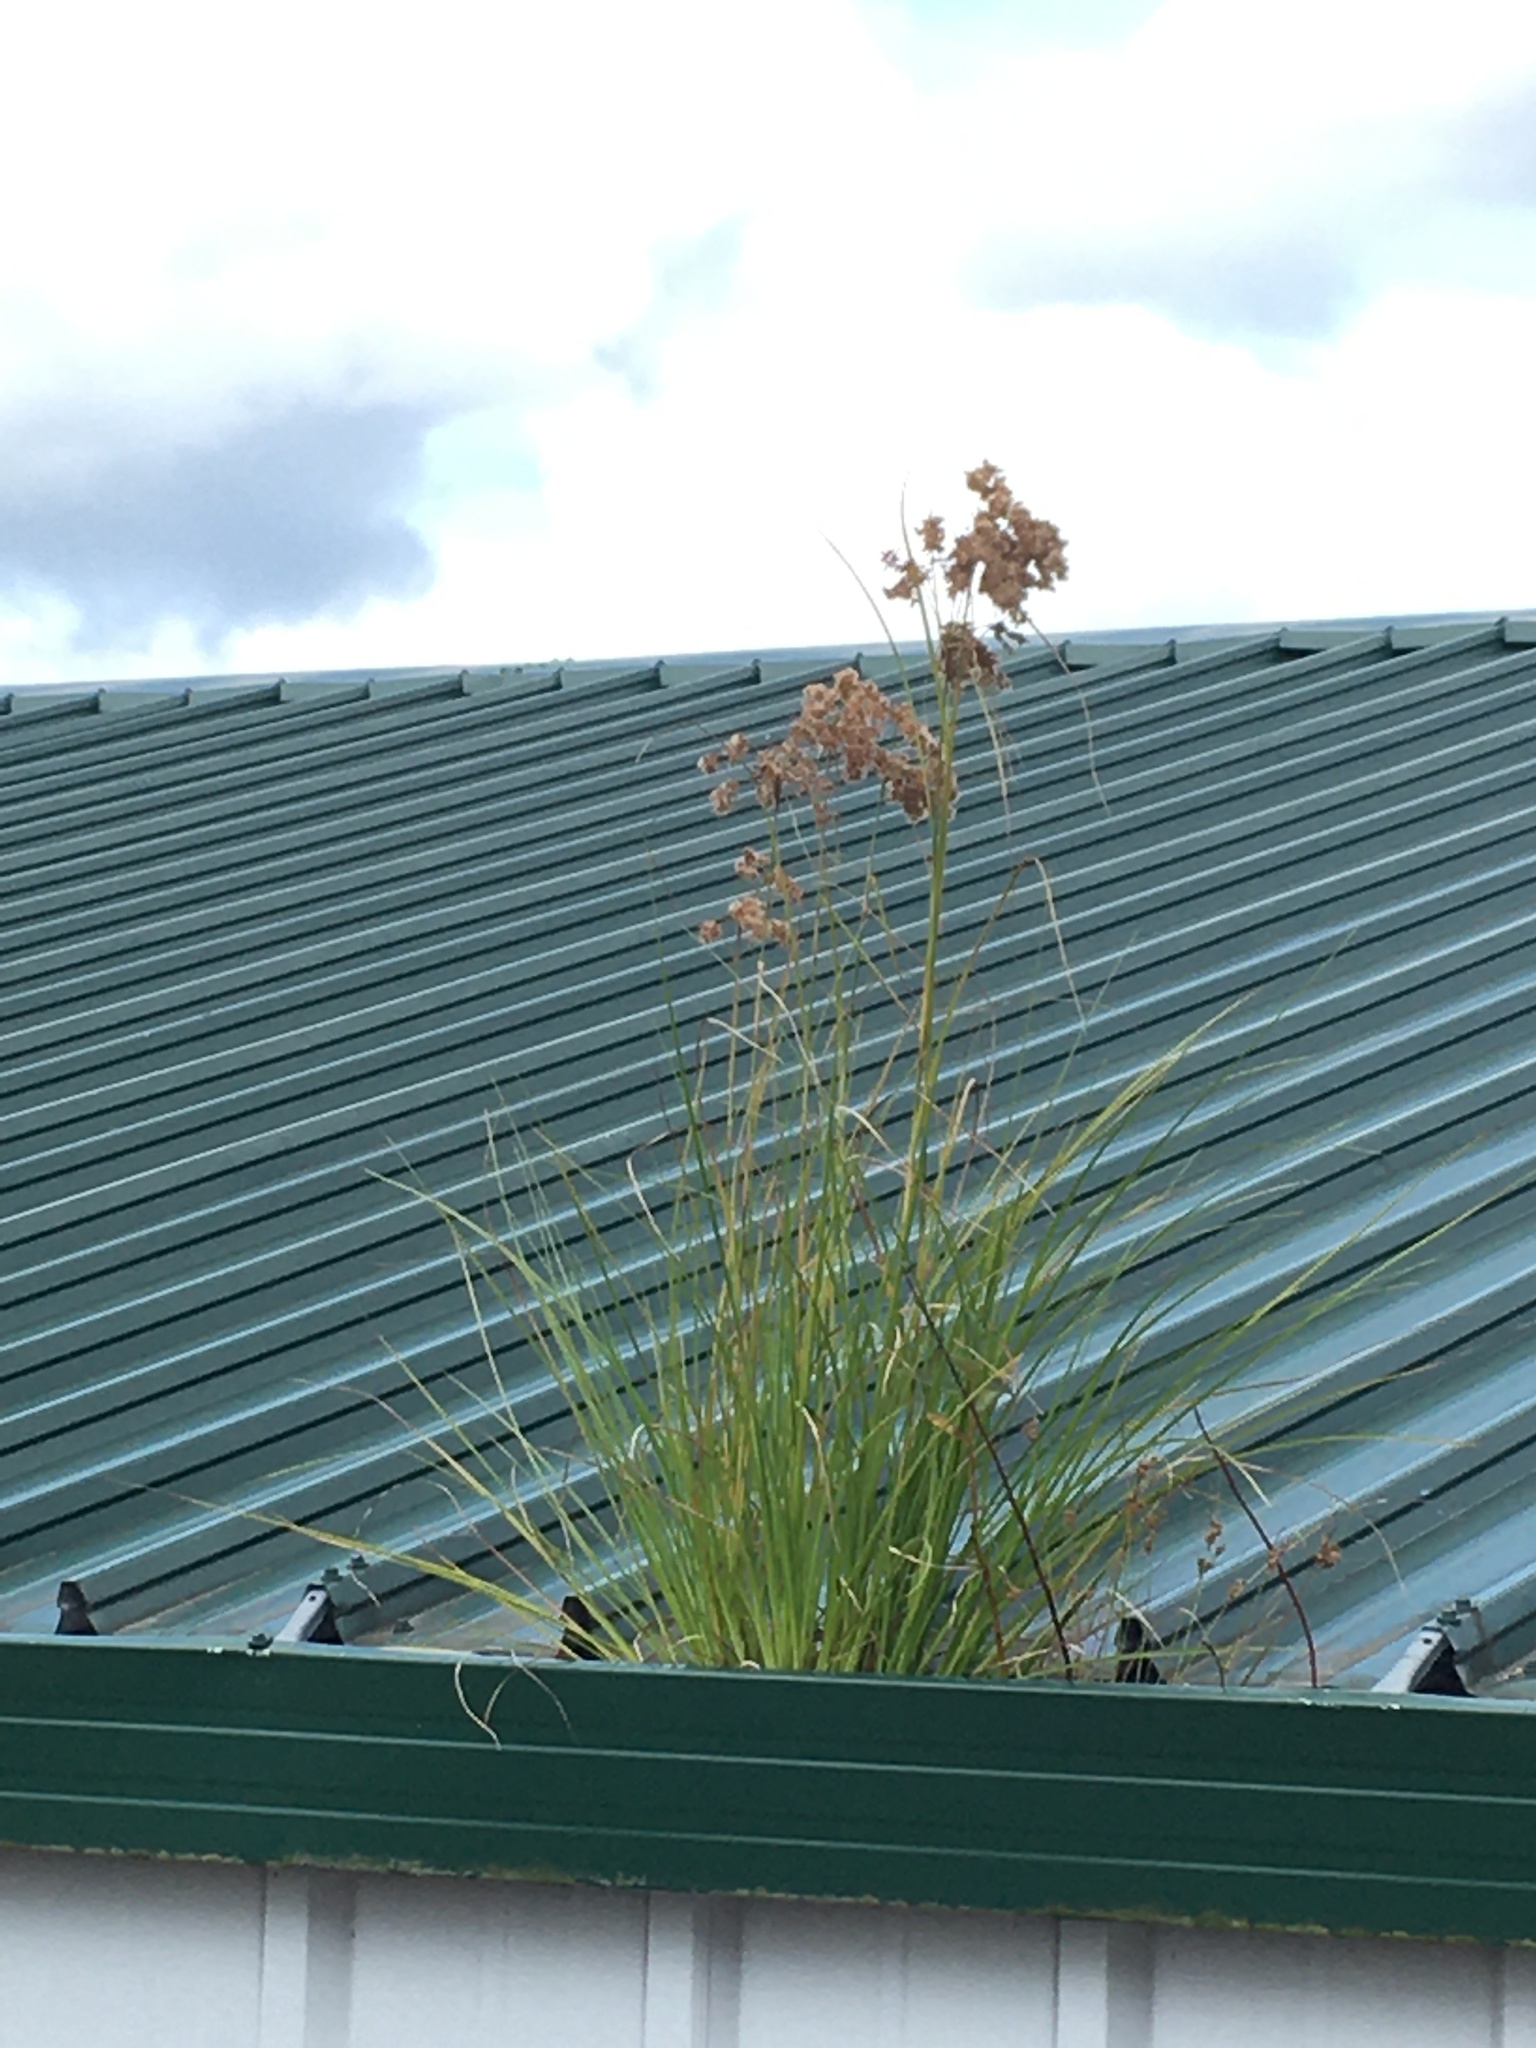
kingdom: Plantae
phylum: Tracheophyta
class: Liliopsida
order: Poales
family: Cyperaceae
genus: Scirpus
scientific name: Scirpus cyperinus
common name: Black-sheathed bulrush
